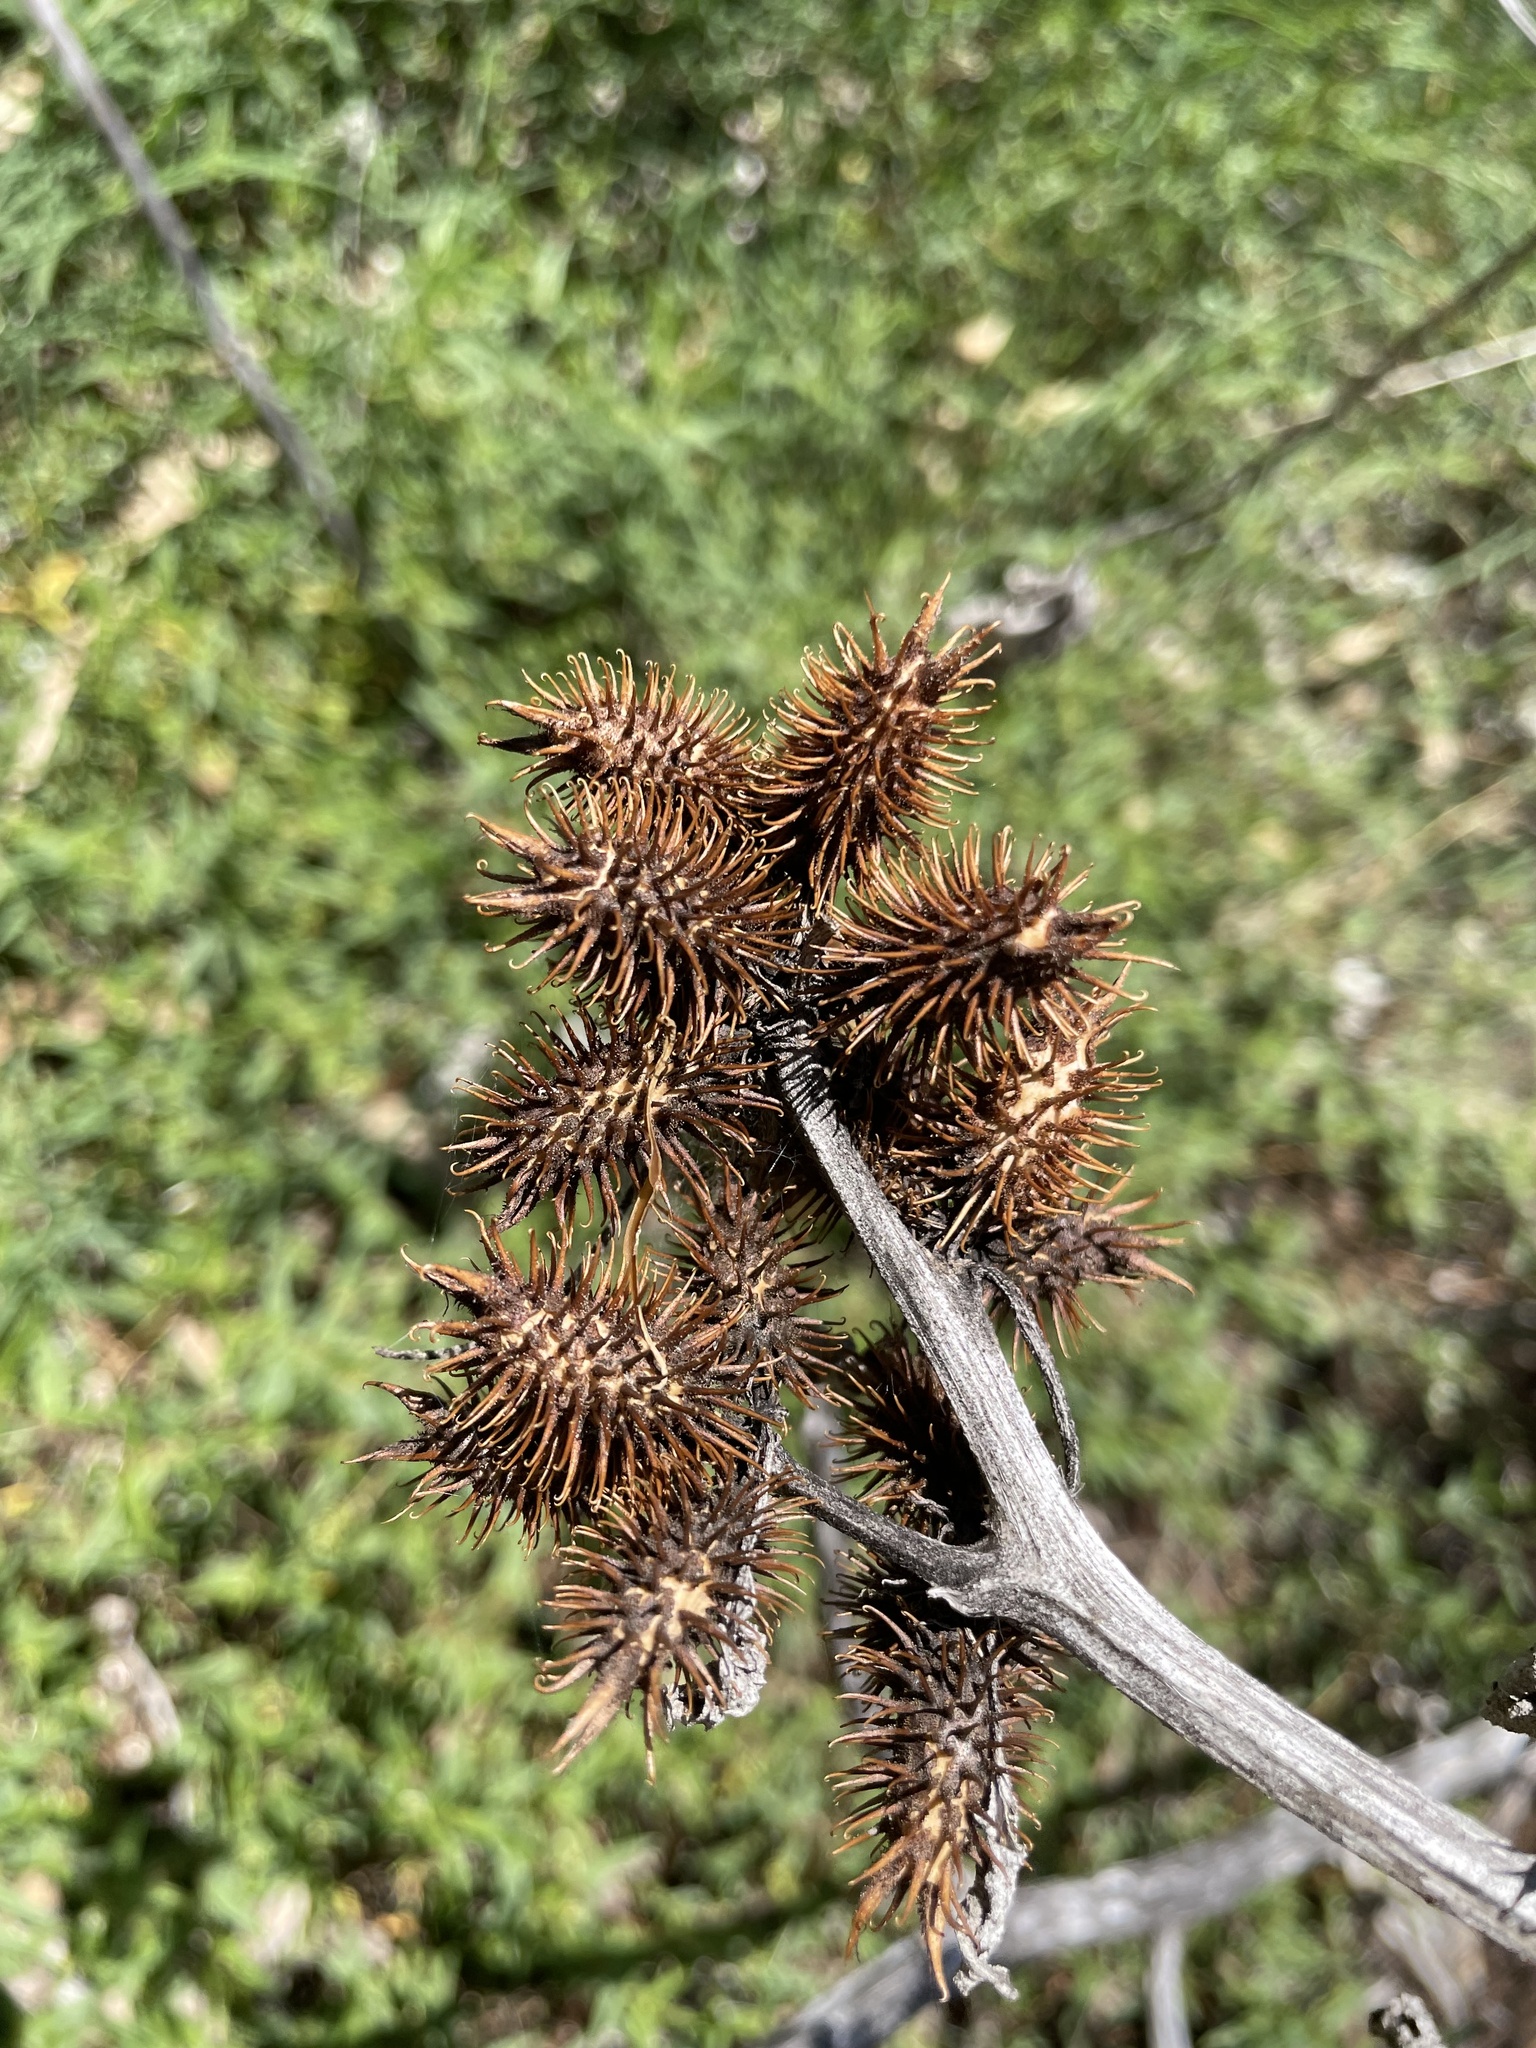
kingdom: Plantae
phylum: Tracheophyta
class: Magnoliopsida
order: Asterales
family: Asteraceae
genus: Xanthium
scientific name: Xanthium strumarium
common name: Rough cocklebur
